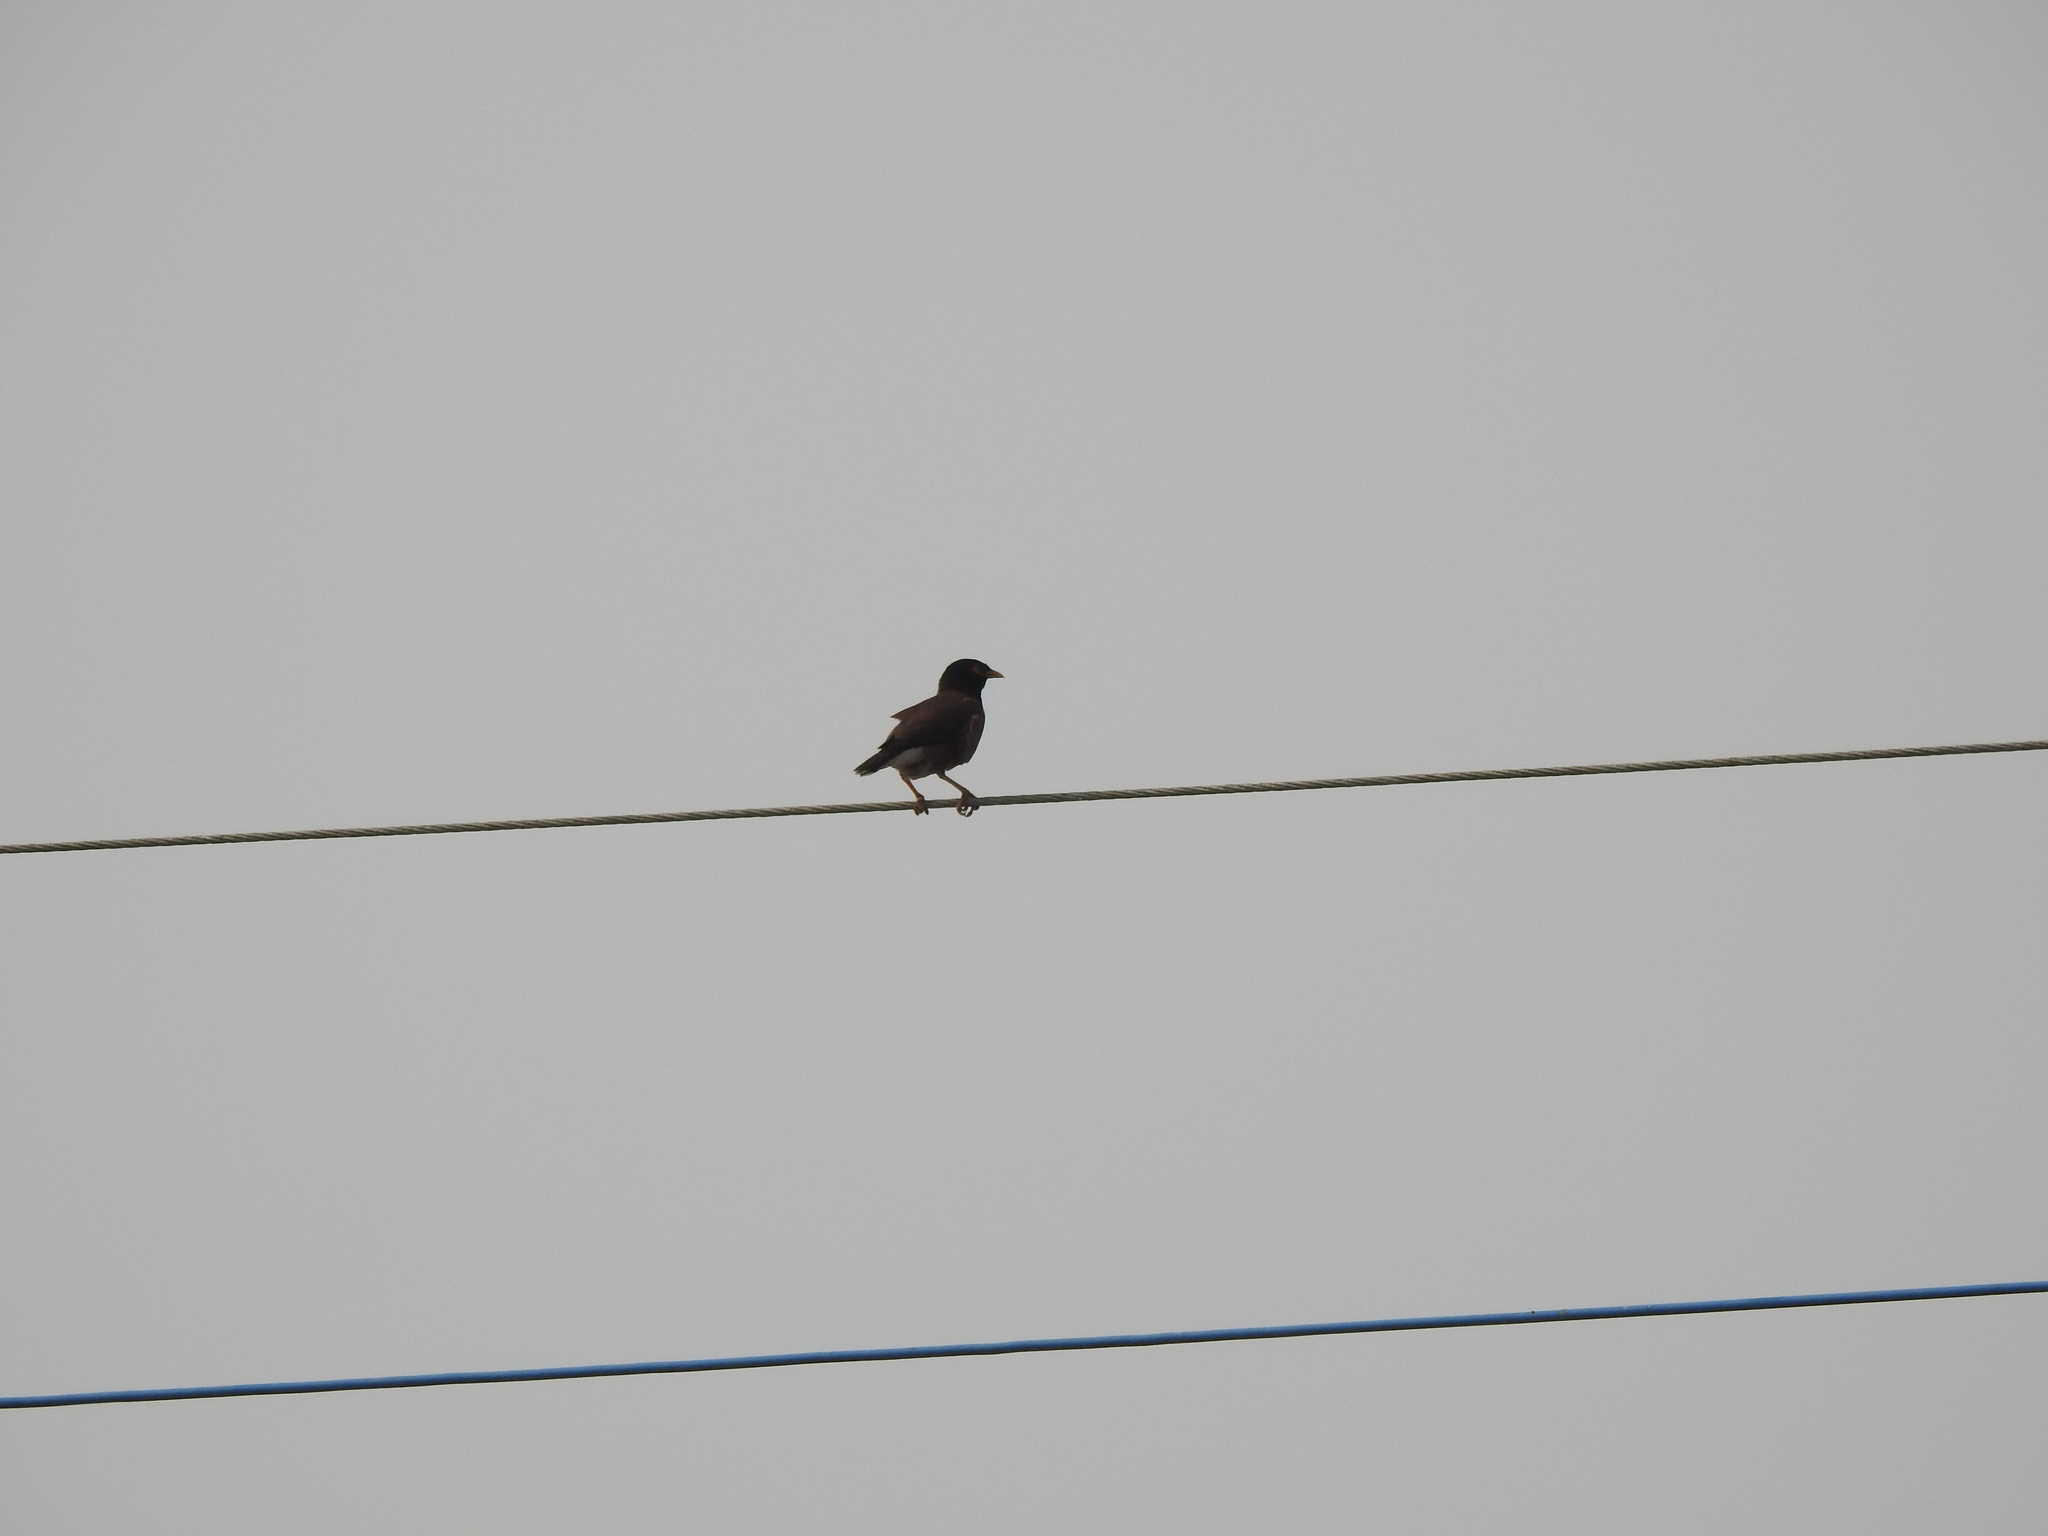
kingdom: Animalia
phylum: Chordata
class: Aves
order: Passeriformes
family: Sturnidae
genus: Acridotheres
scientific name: Acridotheres tristis
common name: Common myna
